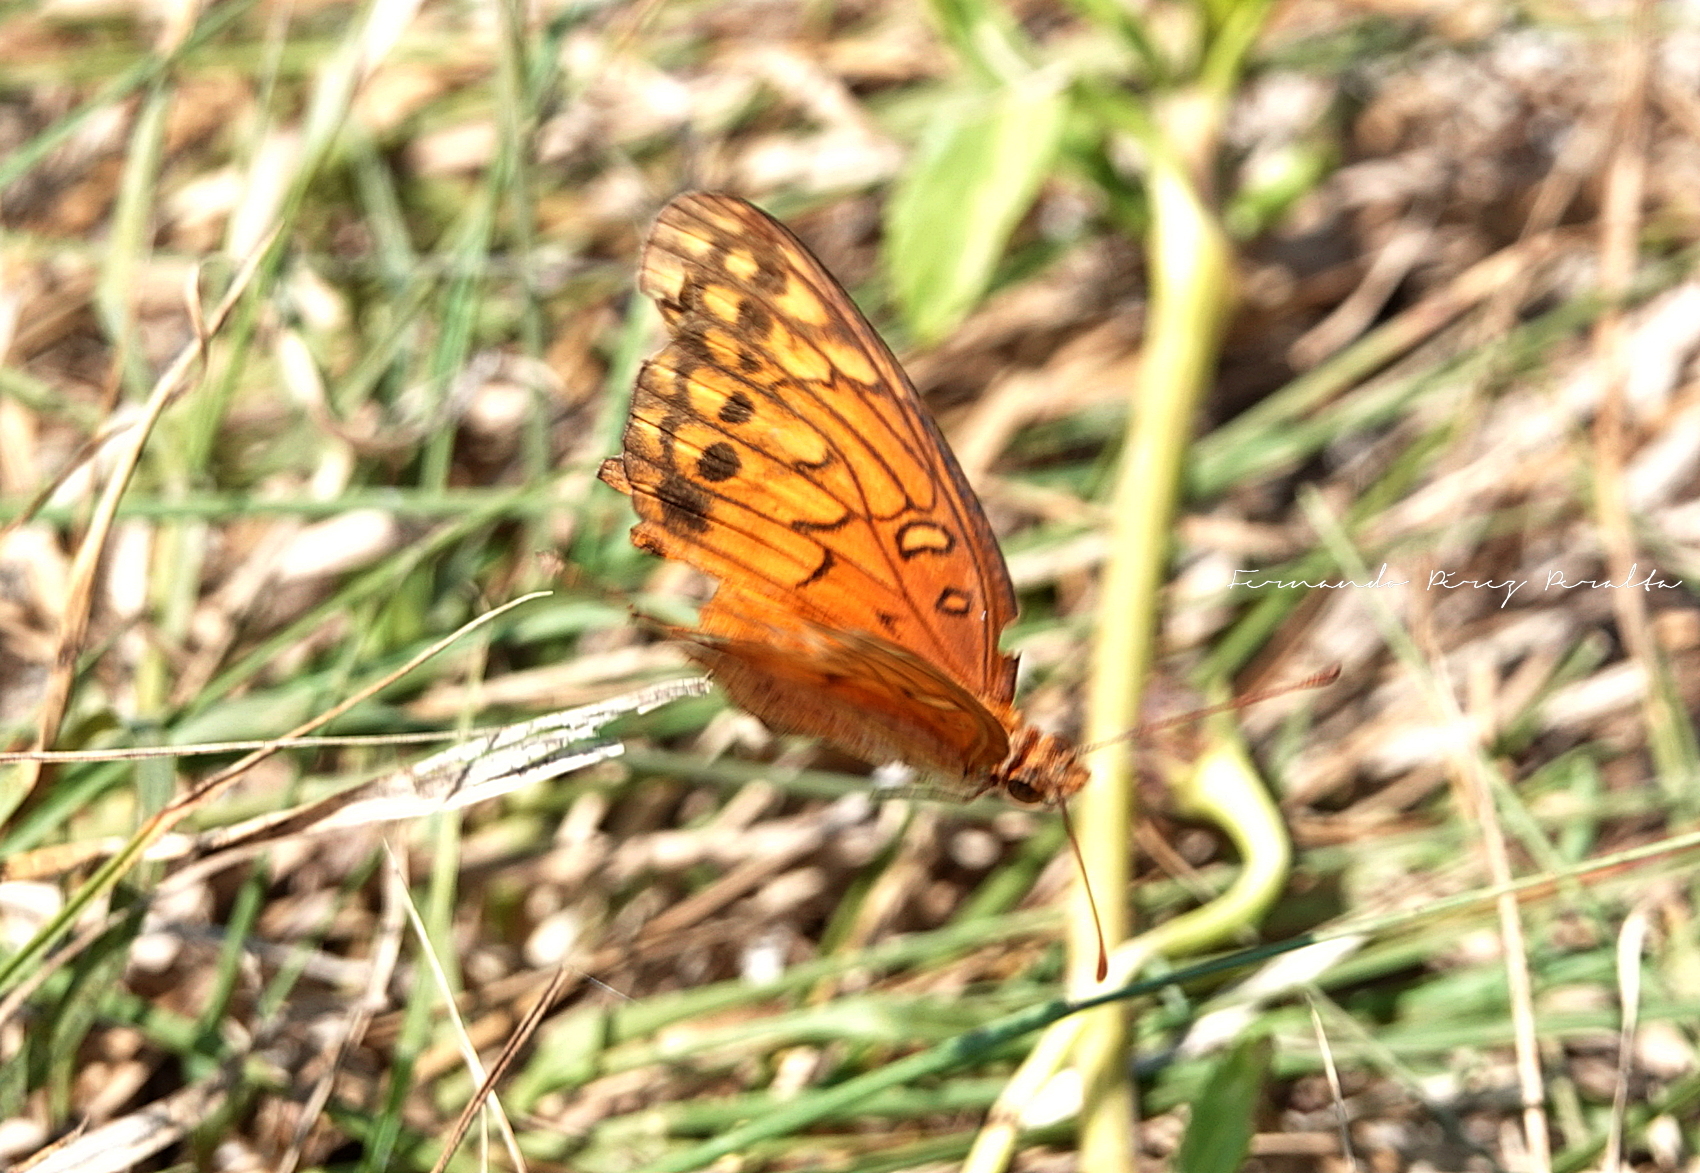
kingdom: Animalia
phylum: Arthropoda
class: Insecta
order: Lepidoptera
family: Nymphalidae
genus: Euptoieta
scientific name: Euptoieta hegesia
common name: Mexican fritillary
